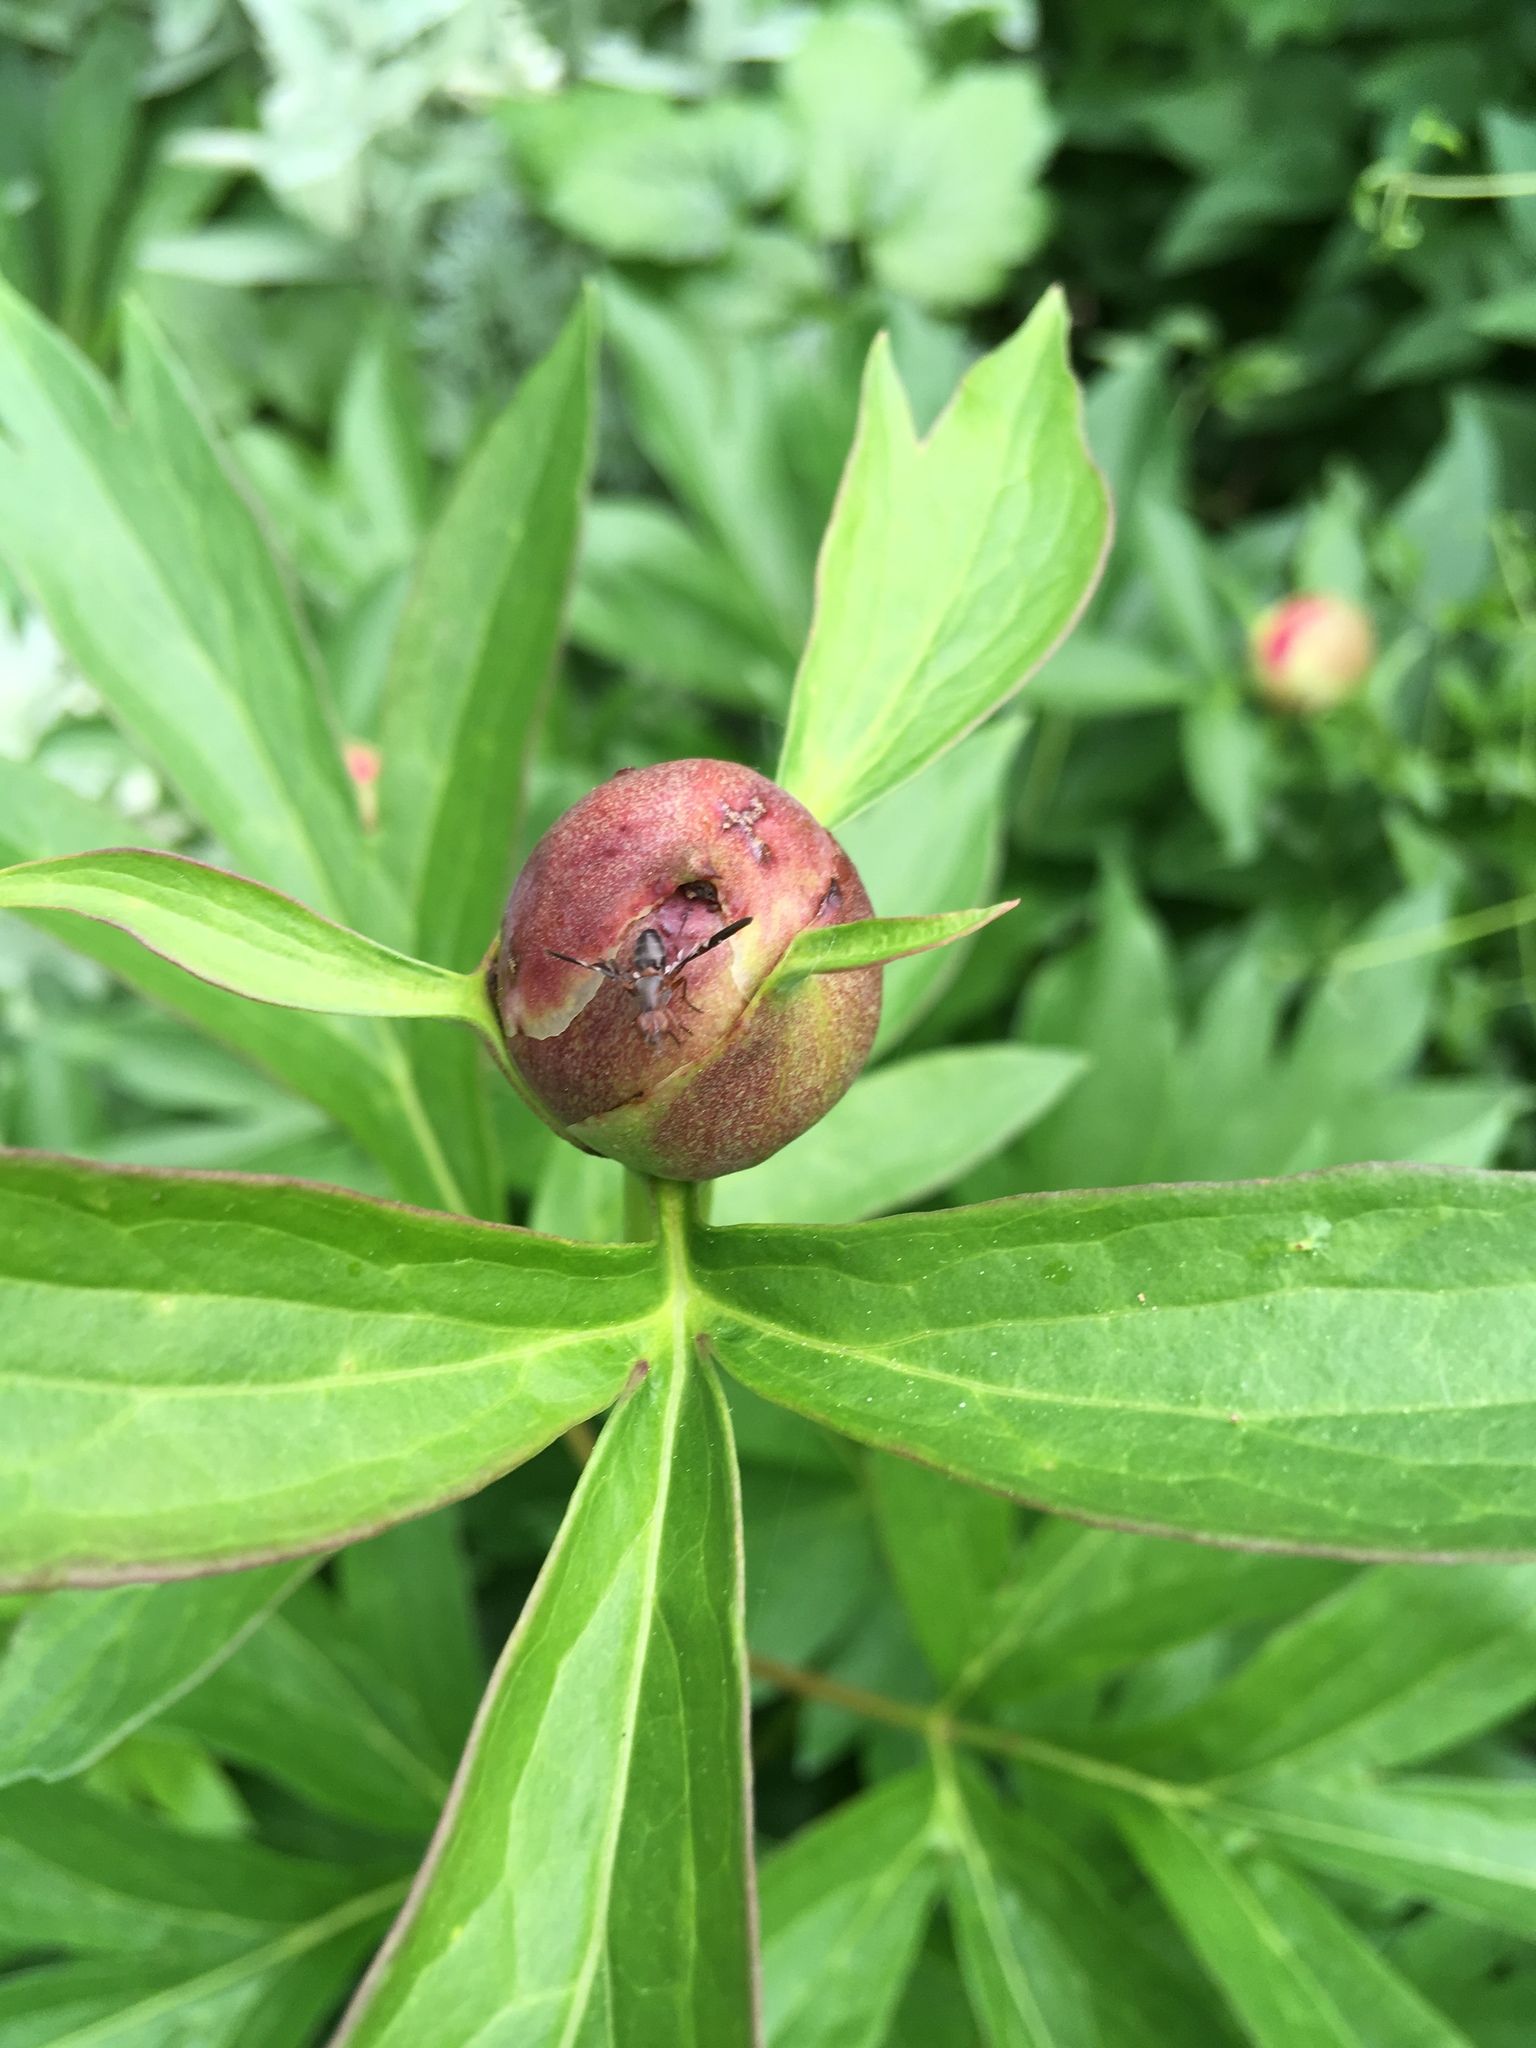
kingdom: Animalia
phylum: Arthropoda
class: Insecta
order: Diptera
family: Ulidiidae
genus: Delphinia
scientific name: Delphinia picta
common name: Common picture-winged fly
